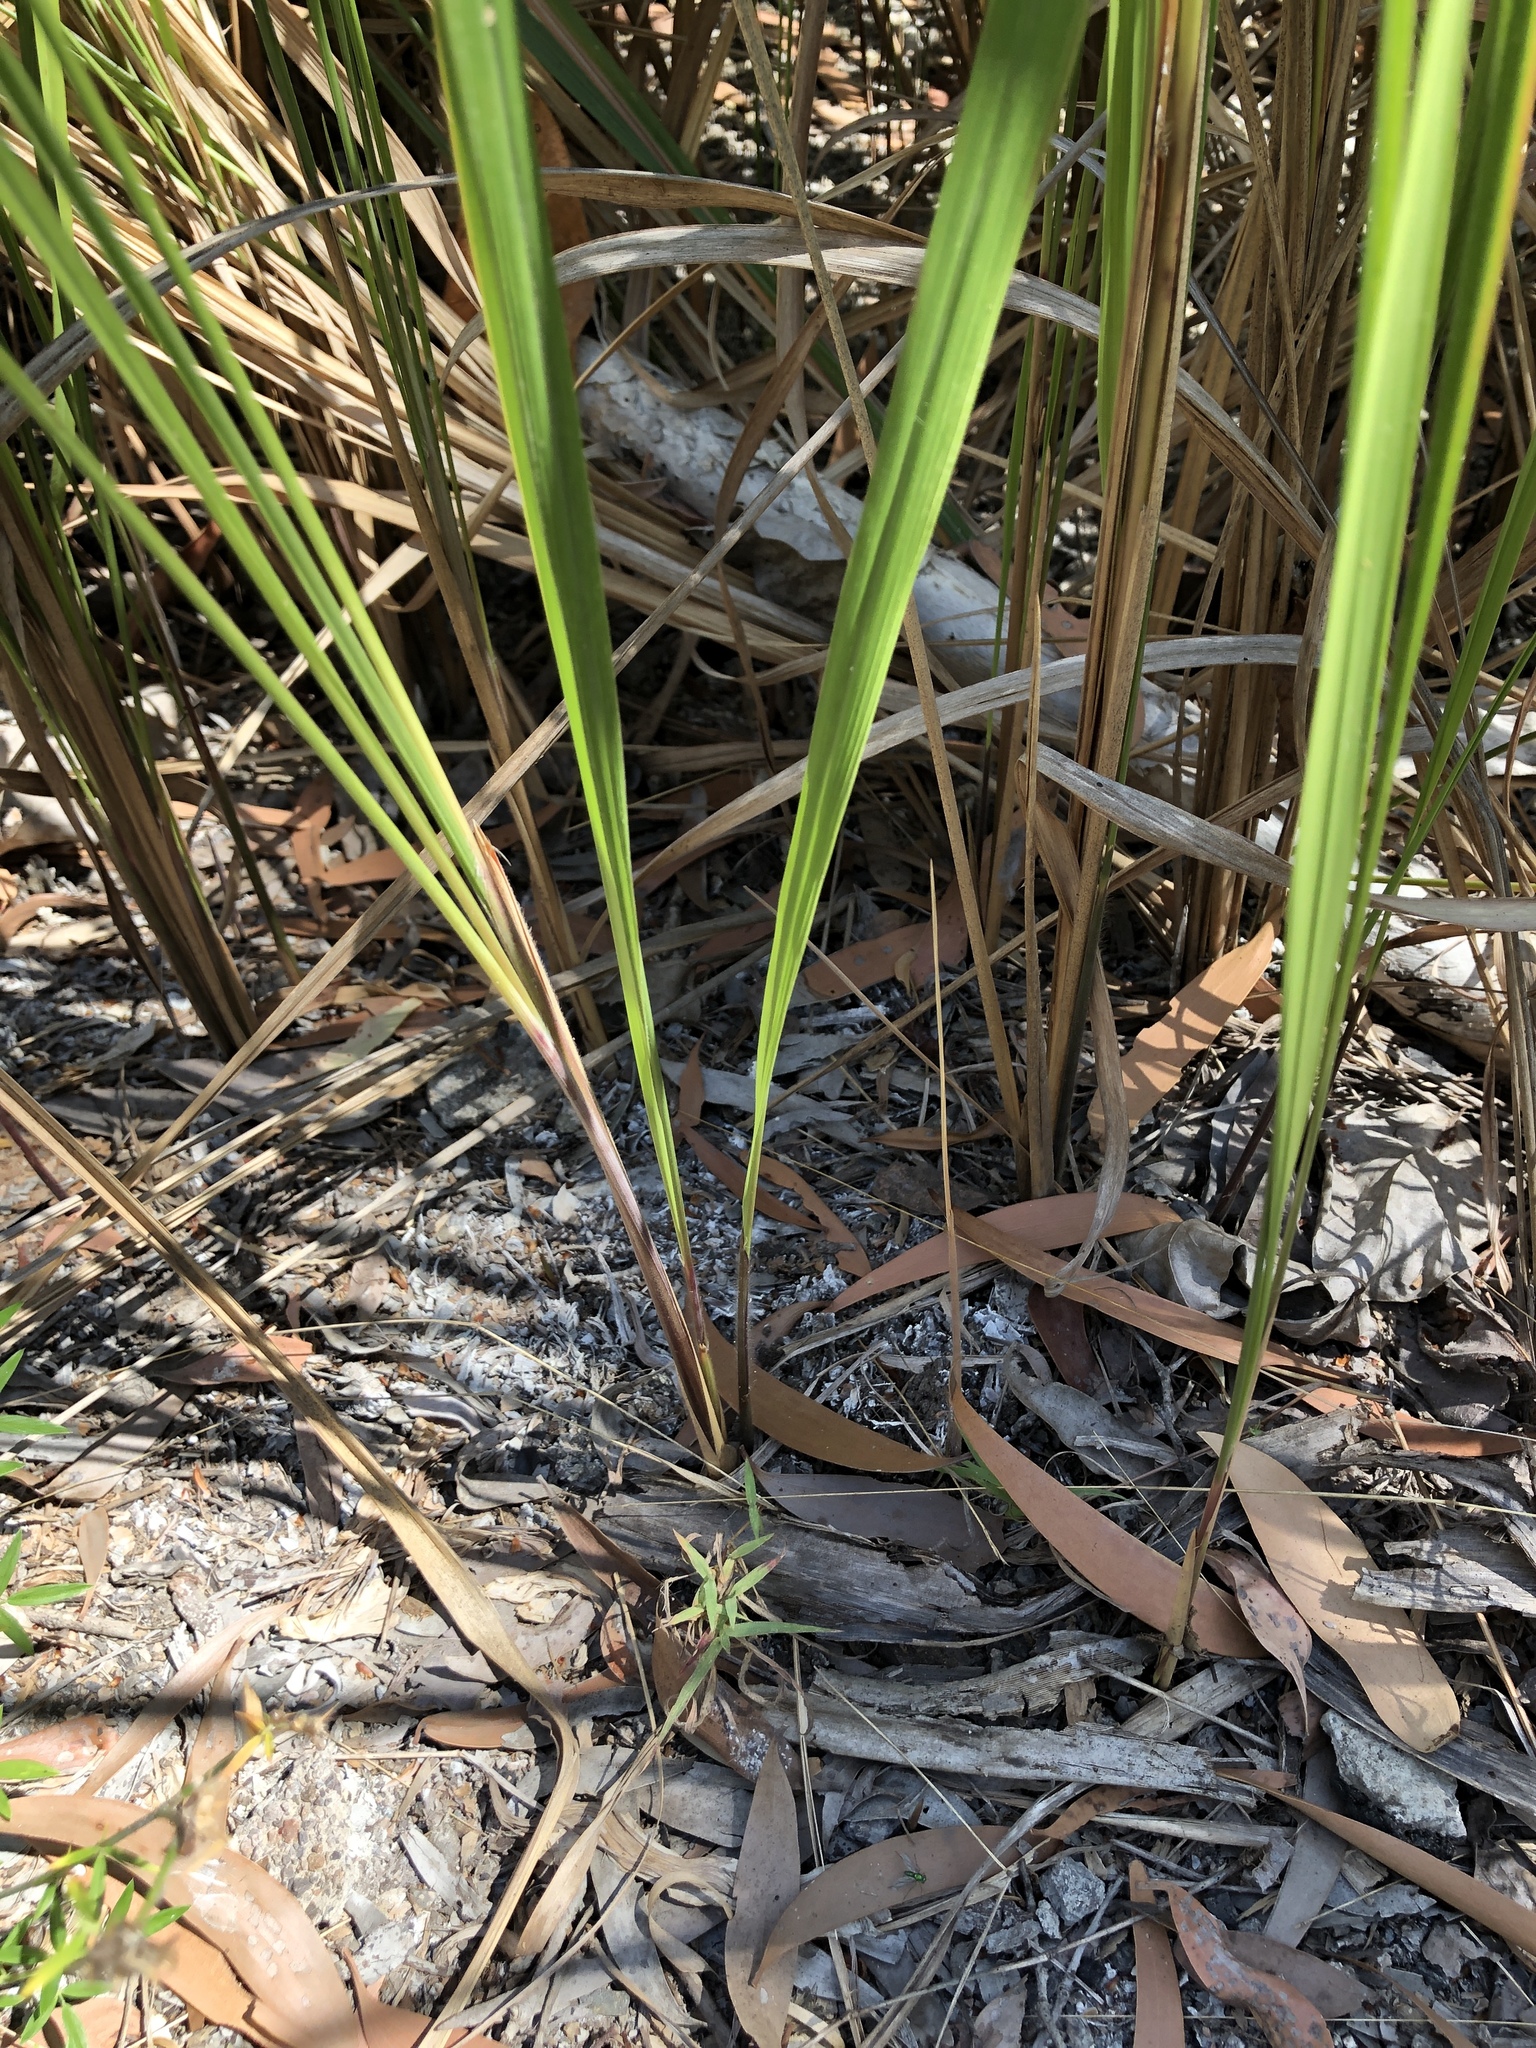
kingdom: Plantae
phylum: Tracheophyta
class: Liliopsida
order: Poales
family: Poaceae
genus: Imperata
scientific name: Imperata cylindrica
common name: Cogongrass
